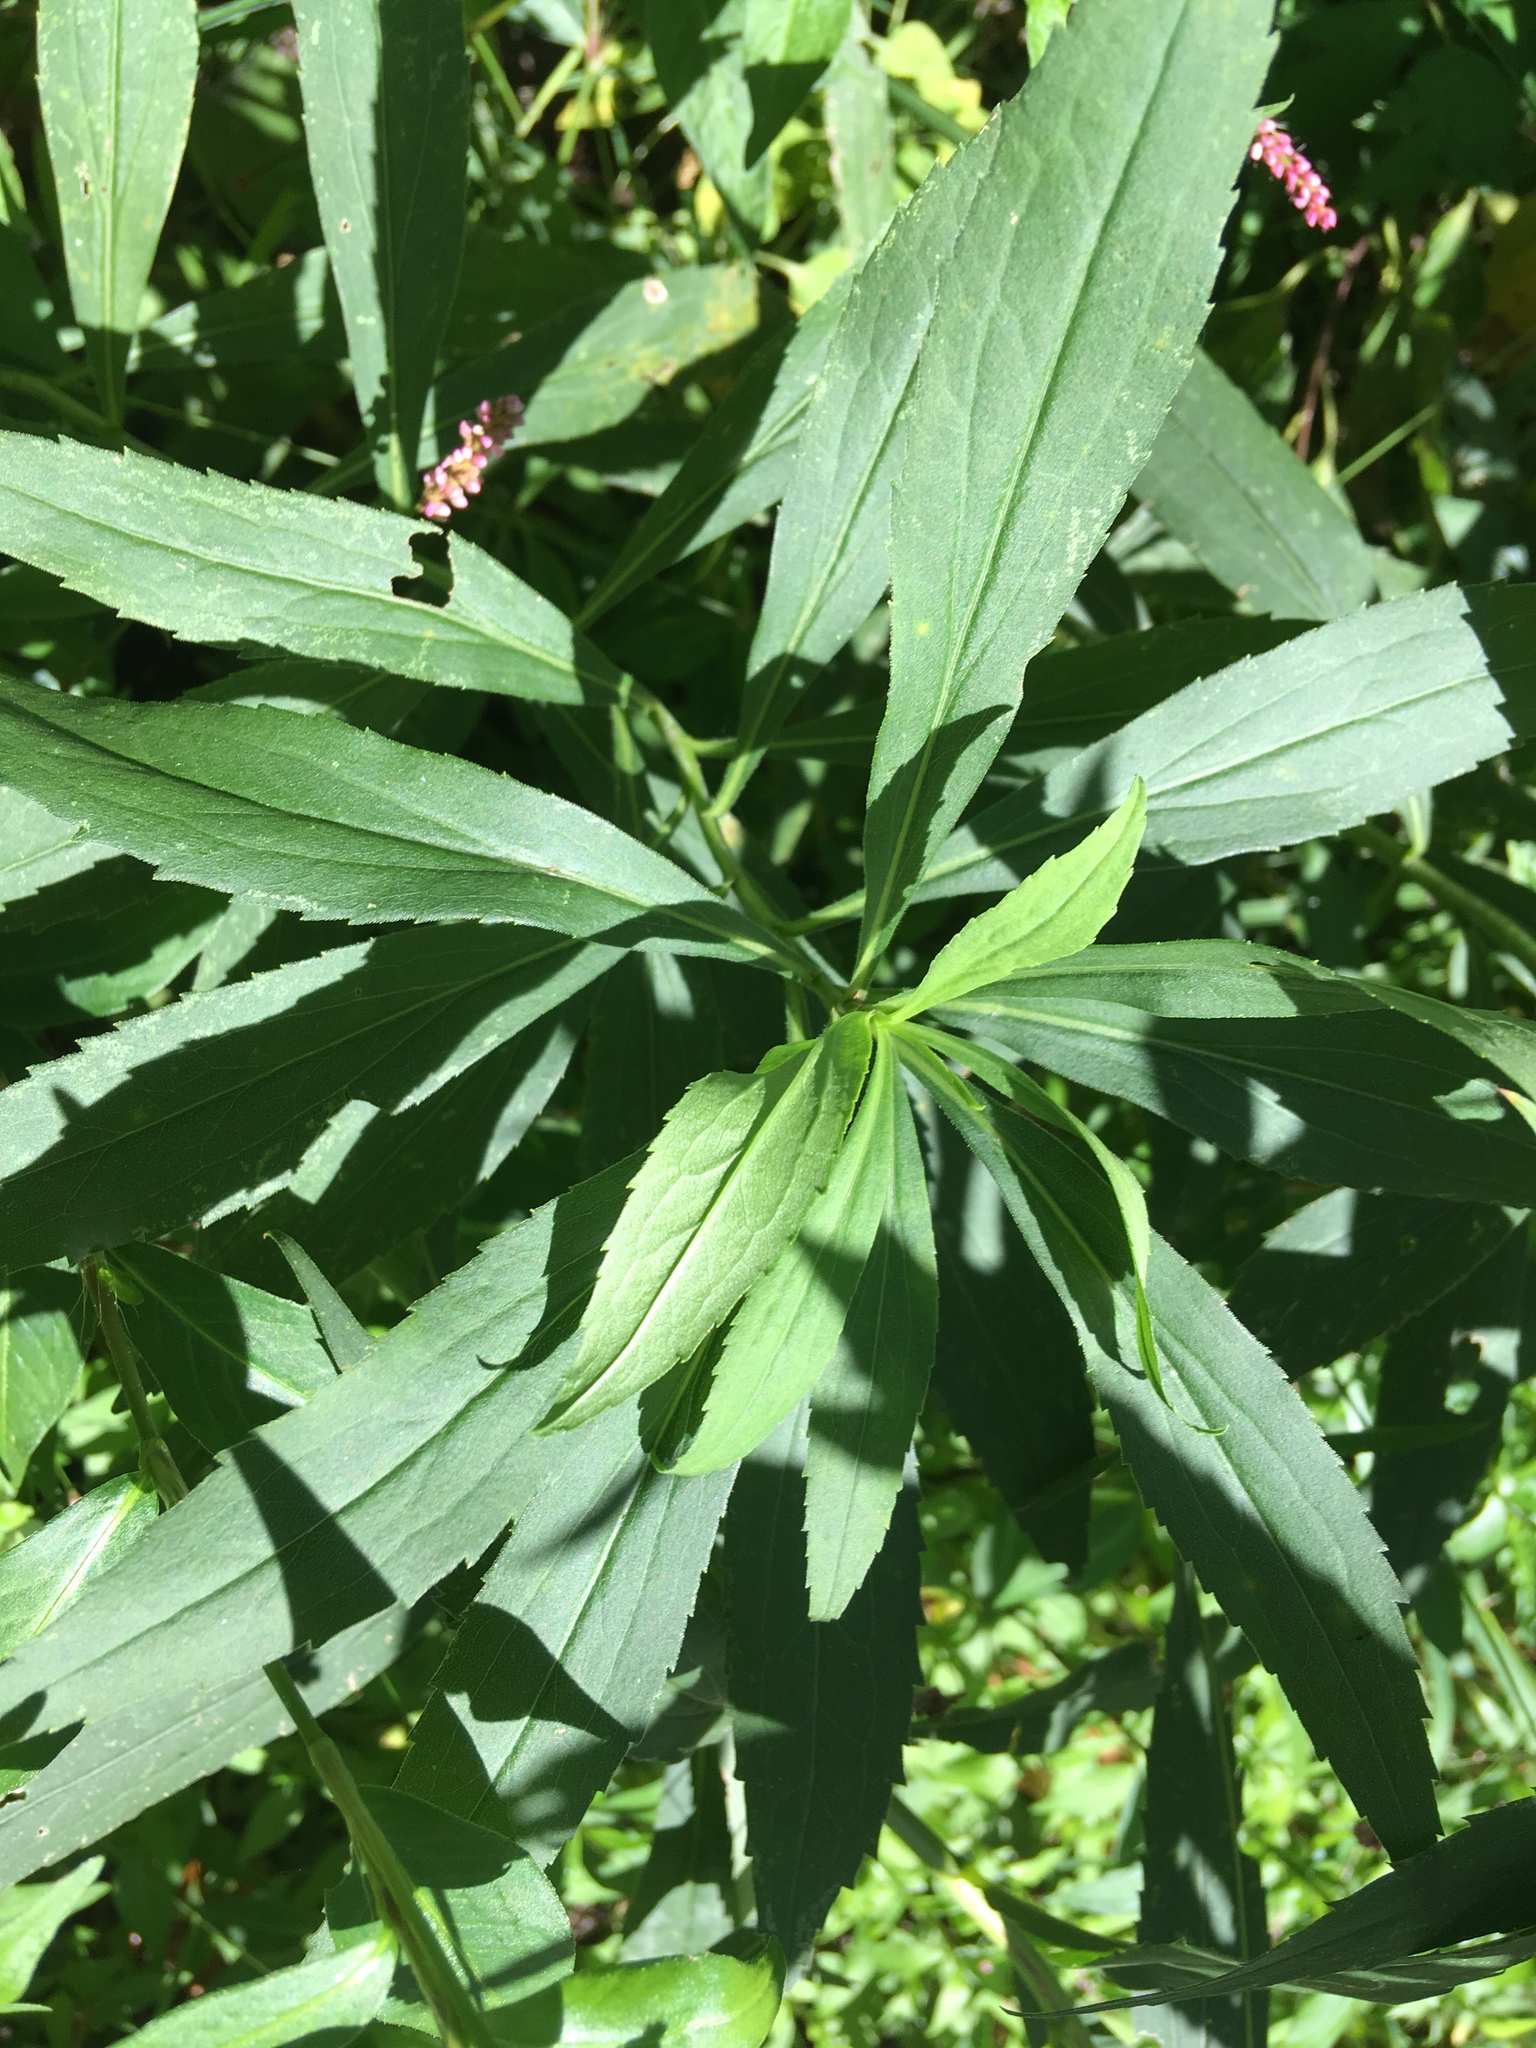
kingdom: Plantae
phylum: Tracheophyta
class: Magnoliopsida
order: Asterales
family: Asteraceae
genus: Solidago
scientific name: Solidago gigantea
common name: Giant goldenrod
